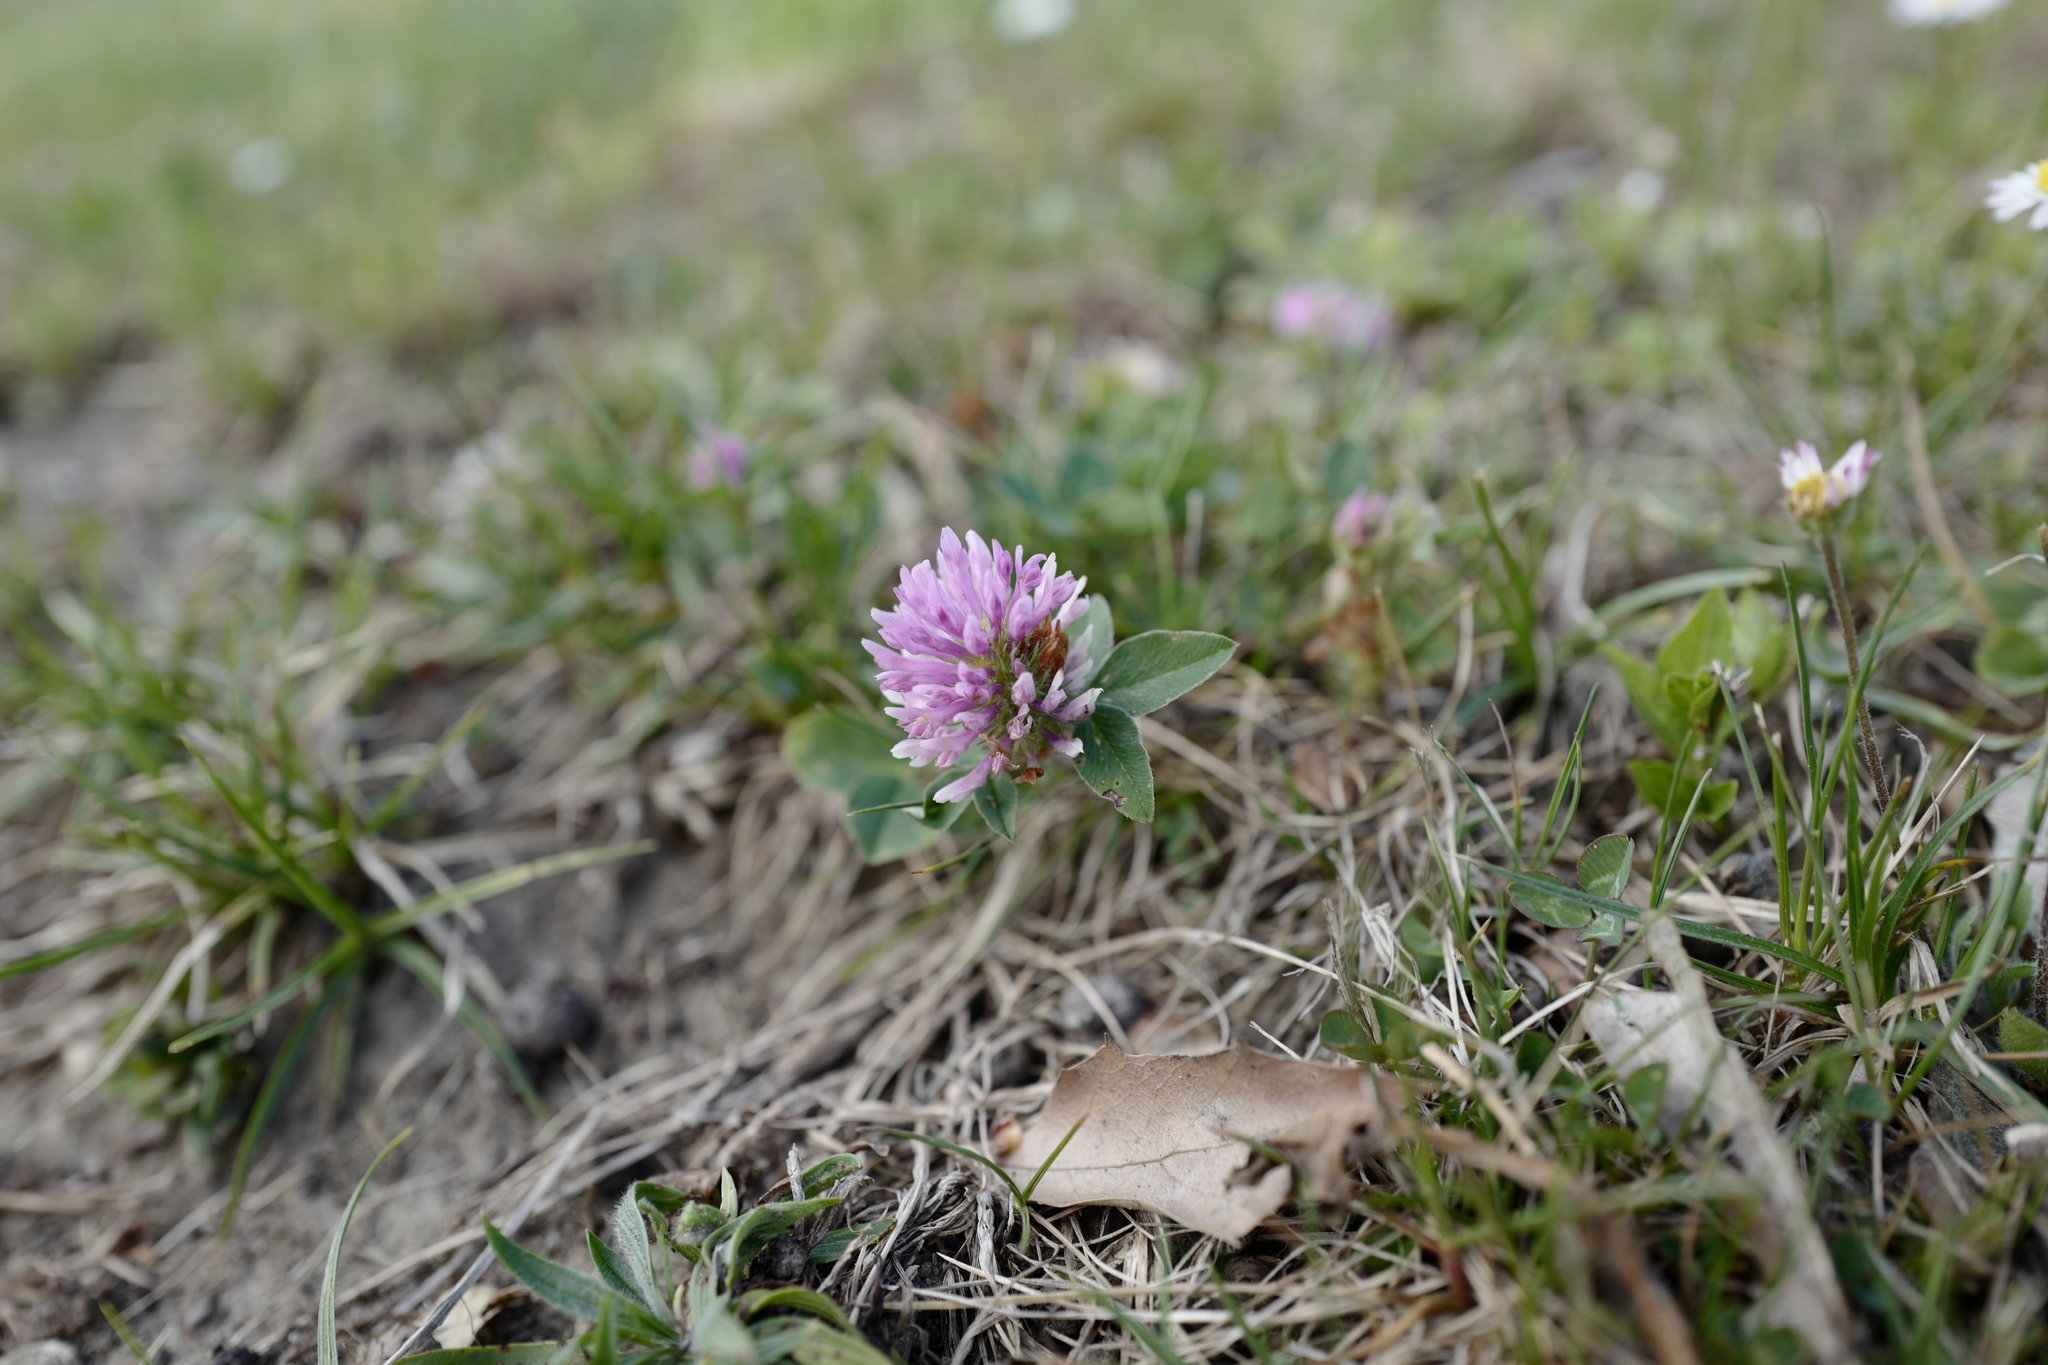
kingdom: Plantae
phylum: Tracheophyta
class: Magnoliopsida
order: Fabales
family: Fabaceae
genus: Trifolium
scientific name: Trifolium pratense
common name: Red clover
